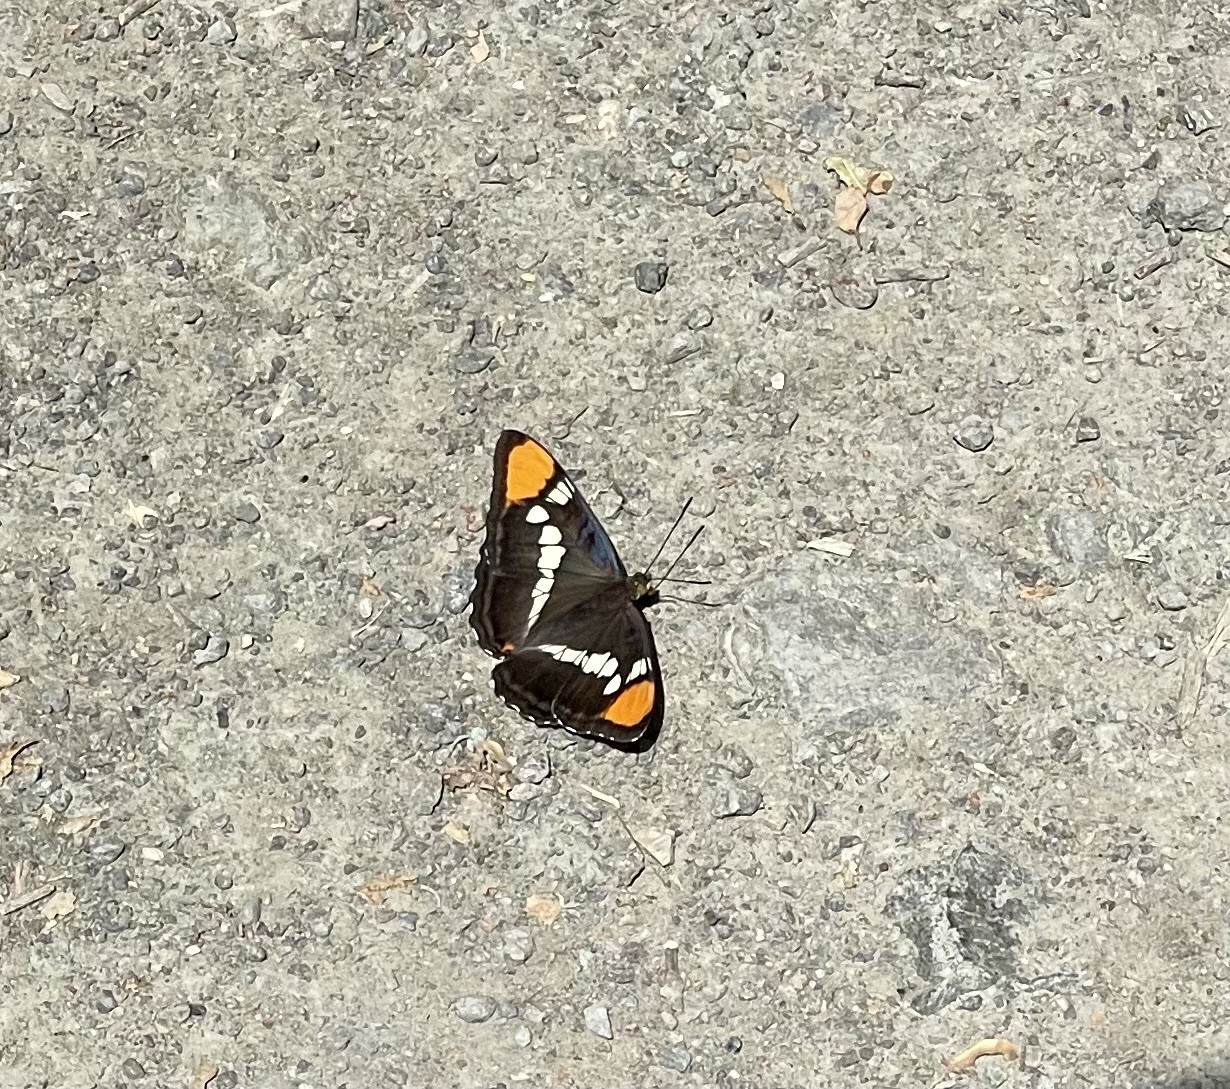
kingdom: Animalia
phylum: Arthropoda
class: Insecta
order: Lepidoptera
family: Nymphalidae
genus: Limenitis
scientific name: Limenitis bredowii
